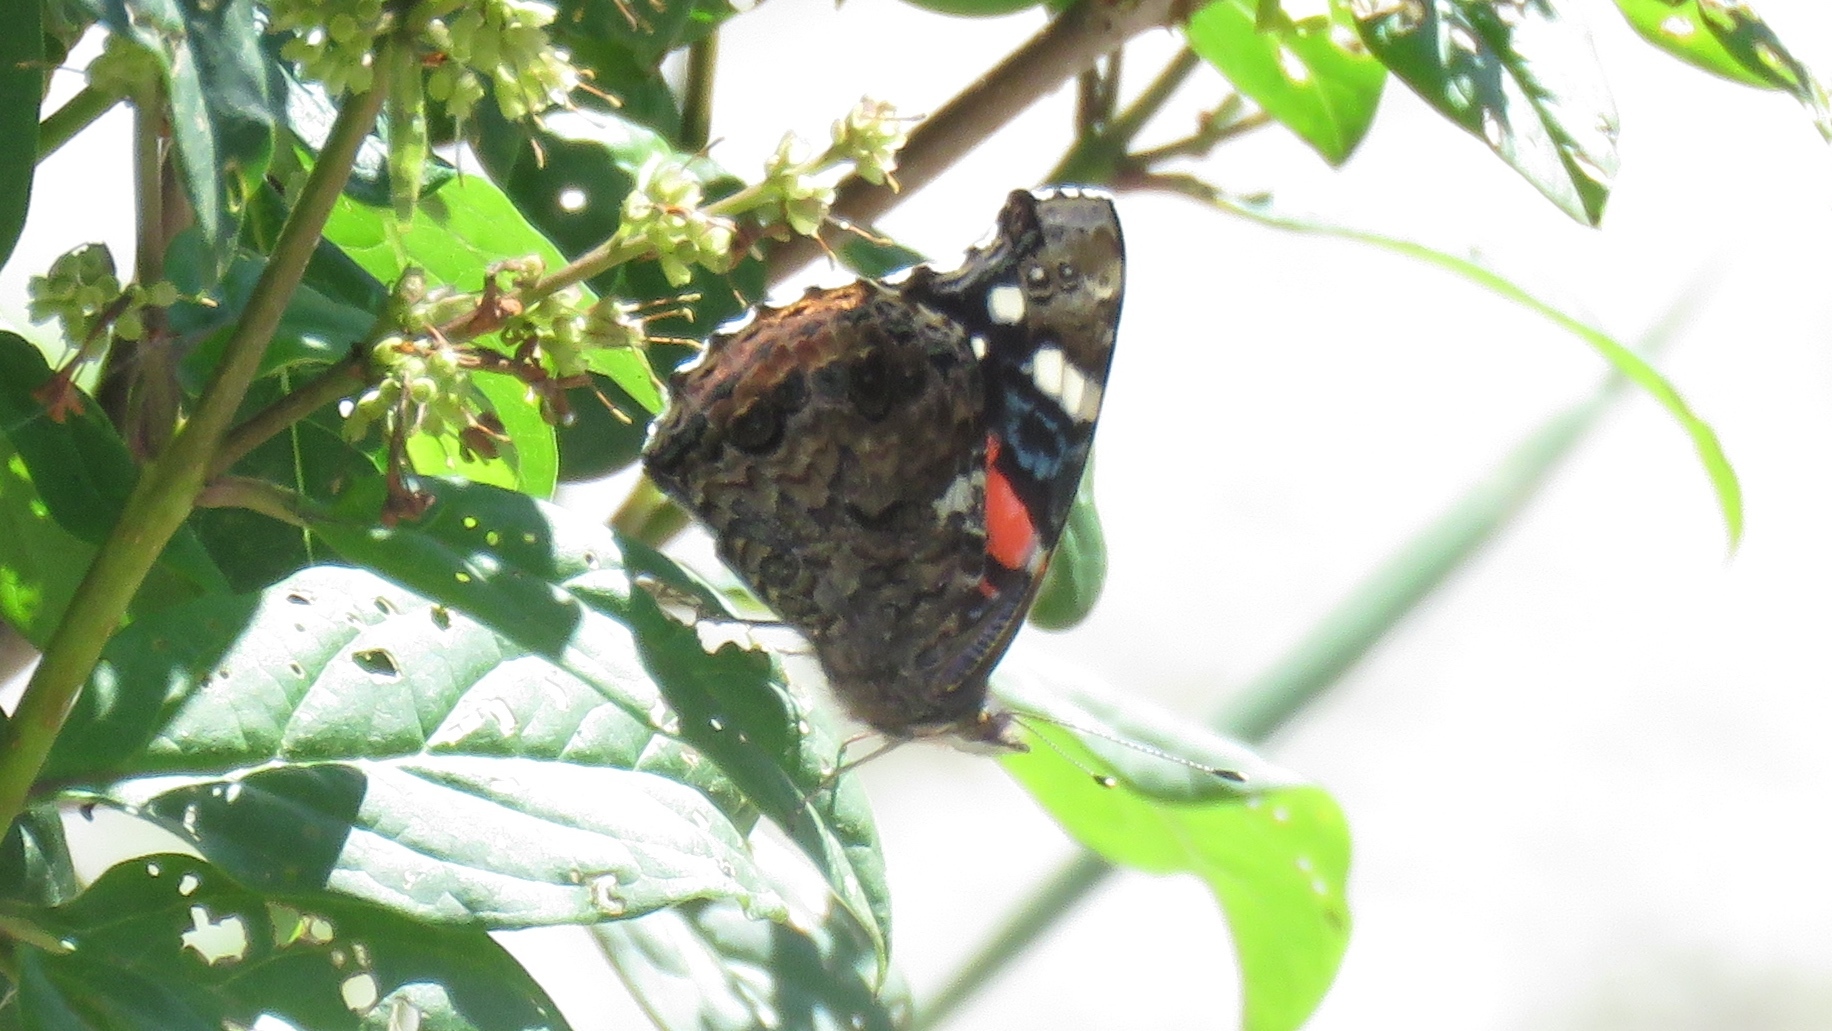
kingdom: Animalia
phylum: Arthropoda
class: Insecta
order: Lepidoptera
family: Nymphalidae
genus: Vanessa
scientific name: Vanessa atalanta
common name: Red admiral
